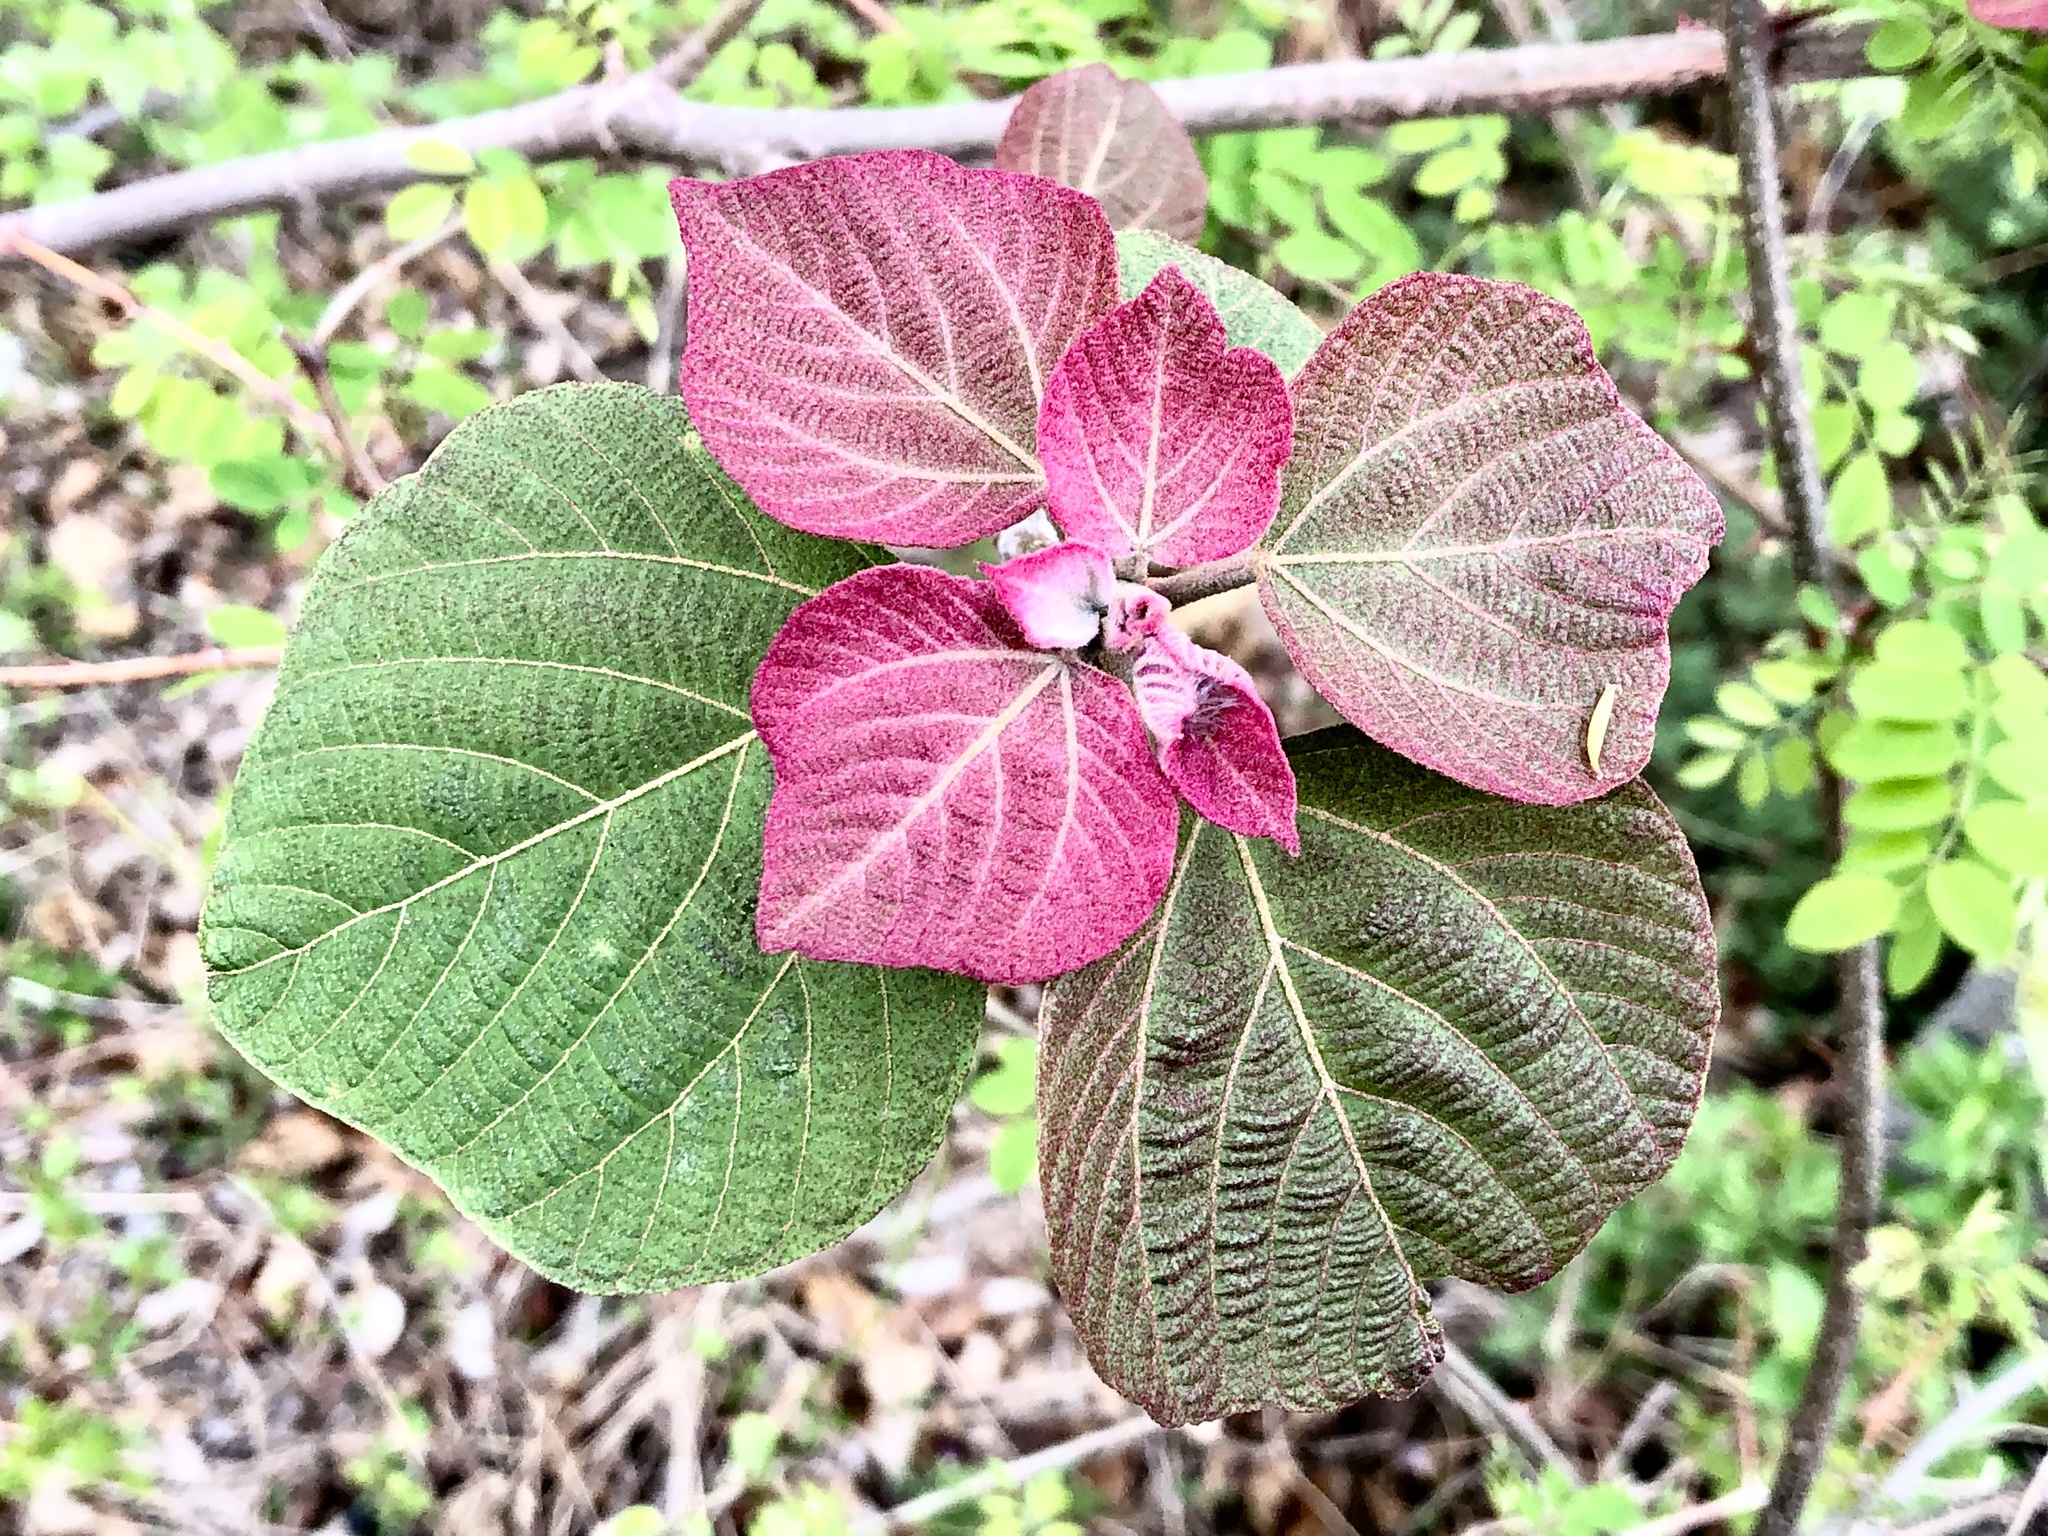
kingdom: Plantae
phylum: Tracheophyta
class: Magnoliopsida
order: Malpighiales
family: Euphorbiaceae
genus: Mallotus
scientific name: Mallotus japonicus
